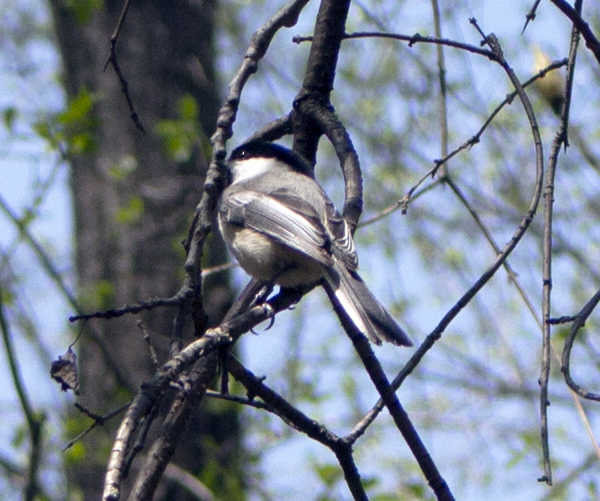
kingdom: Animalia
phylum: Chordata
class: Aves
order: Passeriformes
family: Paridae
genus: Poecile
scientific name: Poecile atricapillus
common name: Black-capped chickadee
